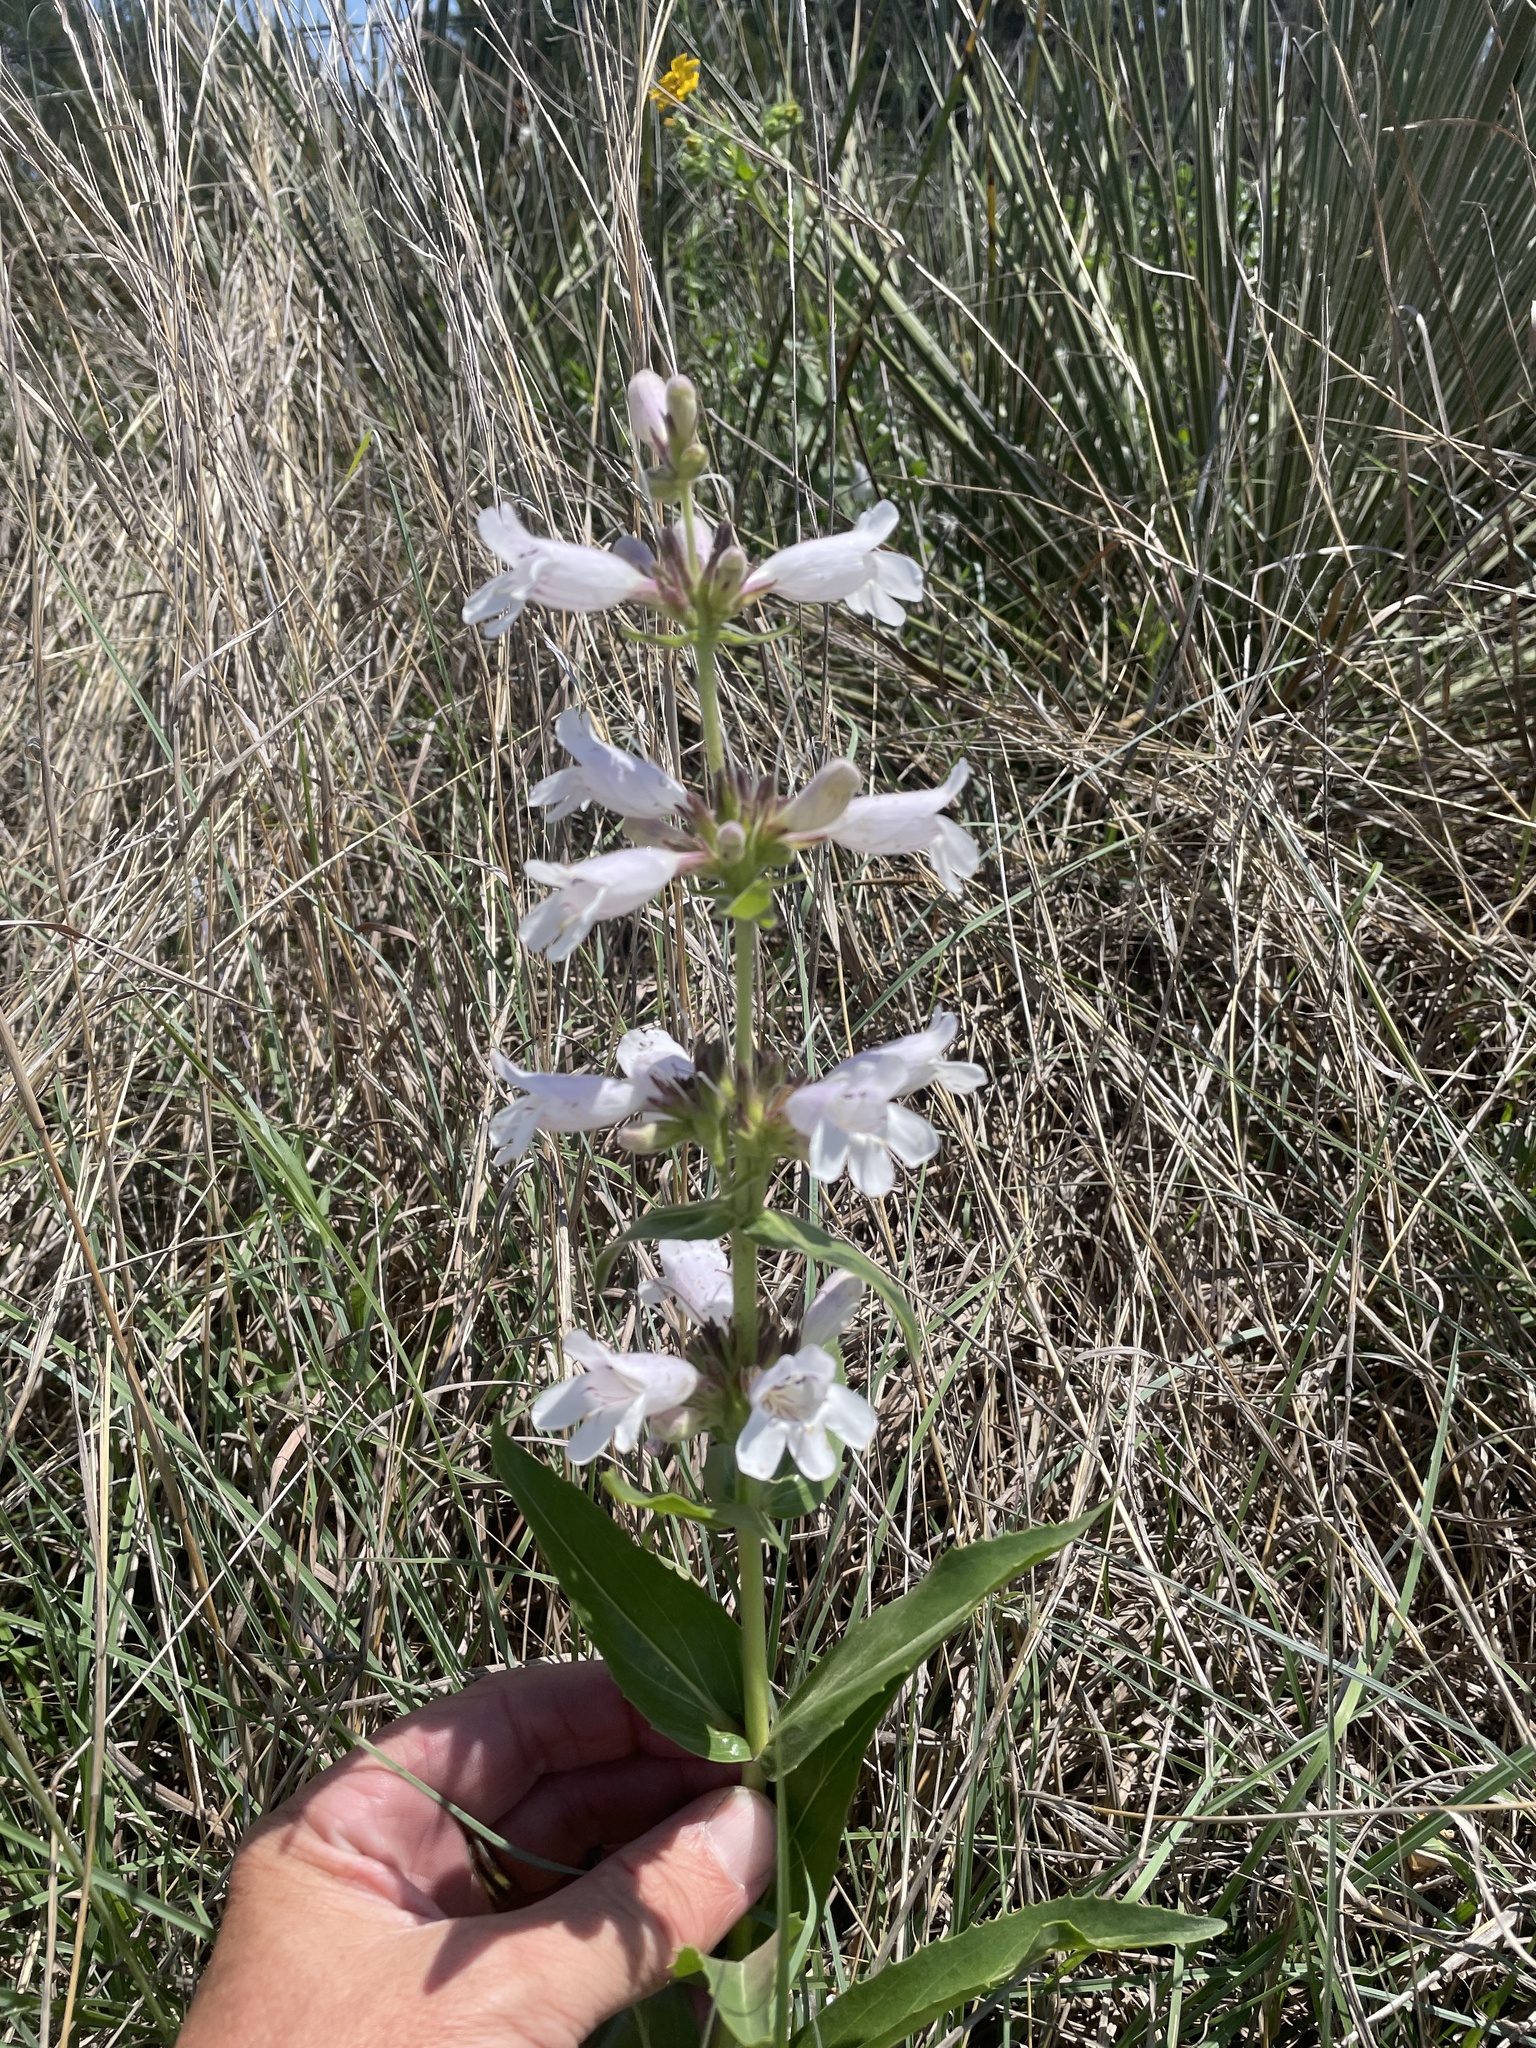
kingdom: Plantae
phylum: Tracheophyta
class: Magnoliopsida
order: Lamiales
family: Plantaginaceae
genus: Penstemon
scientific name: Penstemon cobaea
